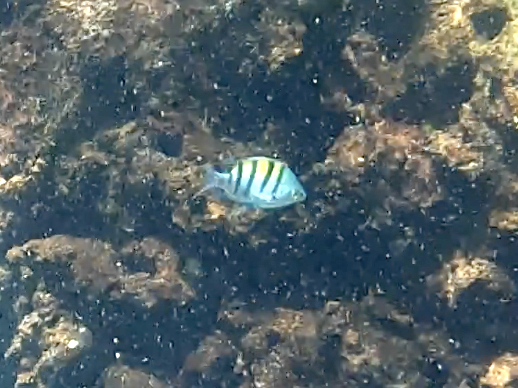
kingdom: Animalia
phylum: Chordata
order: Perciformes
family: Pomacentridae
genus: Abudefduf
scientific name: Abudefduf troschelii
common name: Panamic sergeant major
